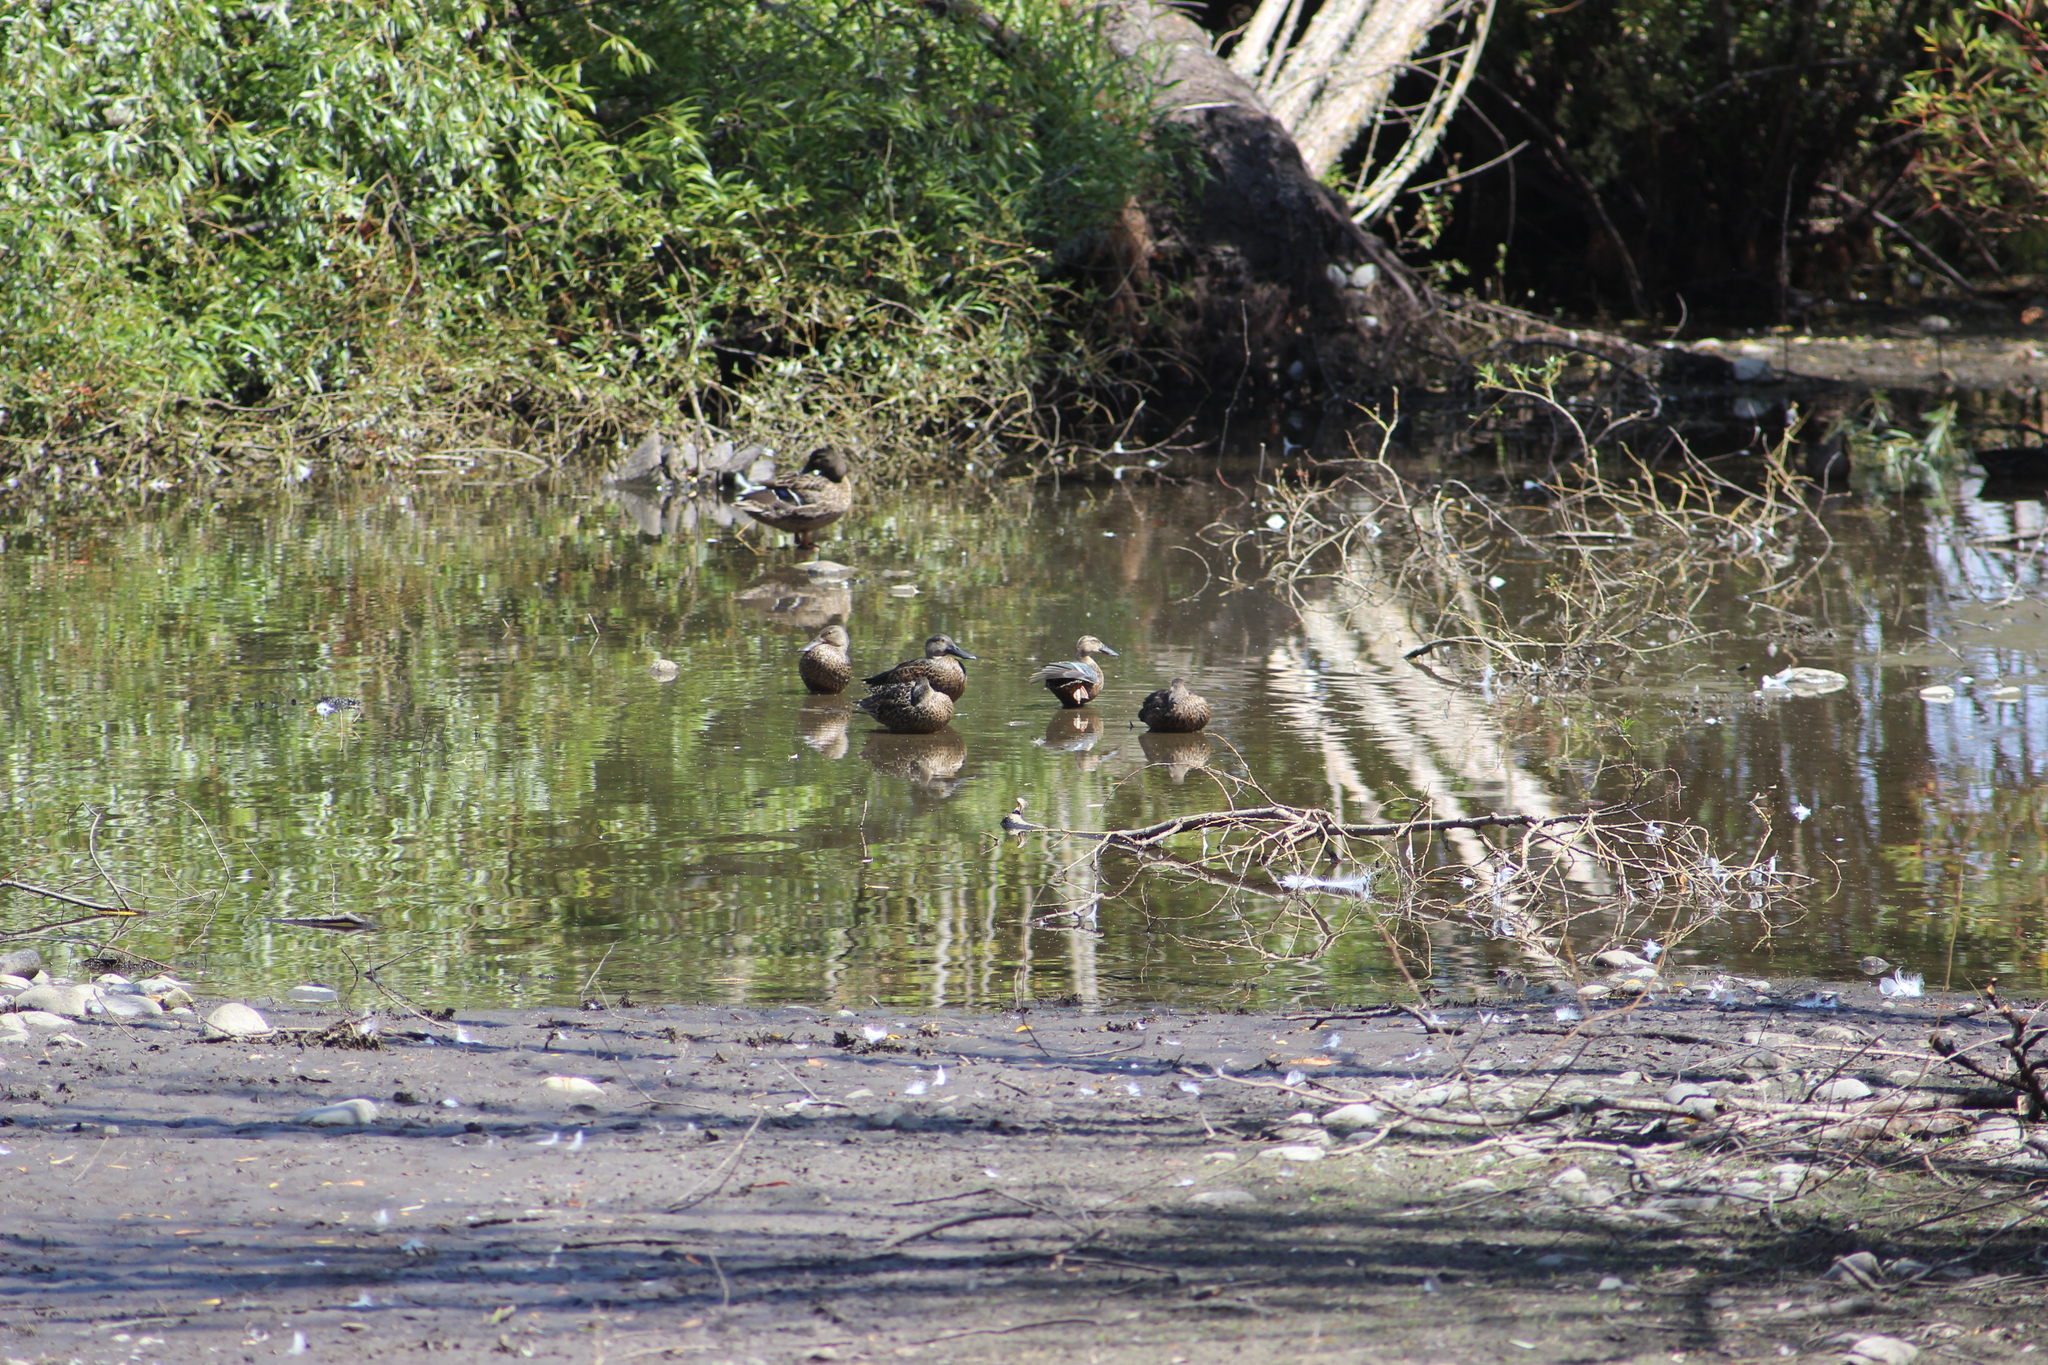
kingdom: Animalia
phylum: Chordata
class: Aves
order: Anseriformes
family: Anatidae
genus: Spatula
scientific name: Spatula rhynchotis
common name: Australian shoveler
